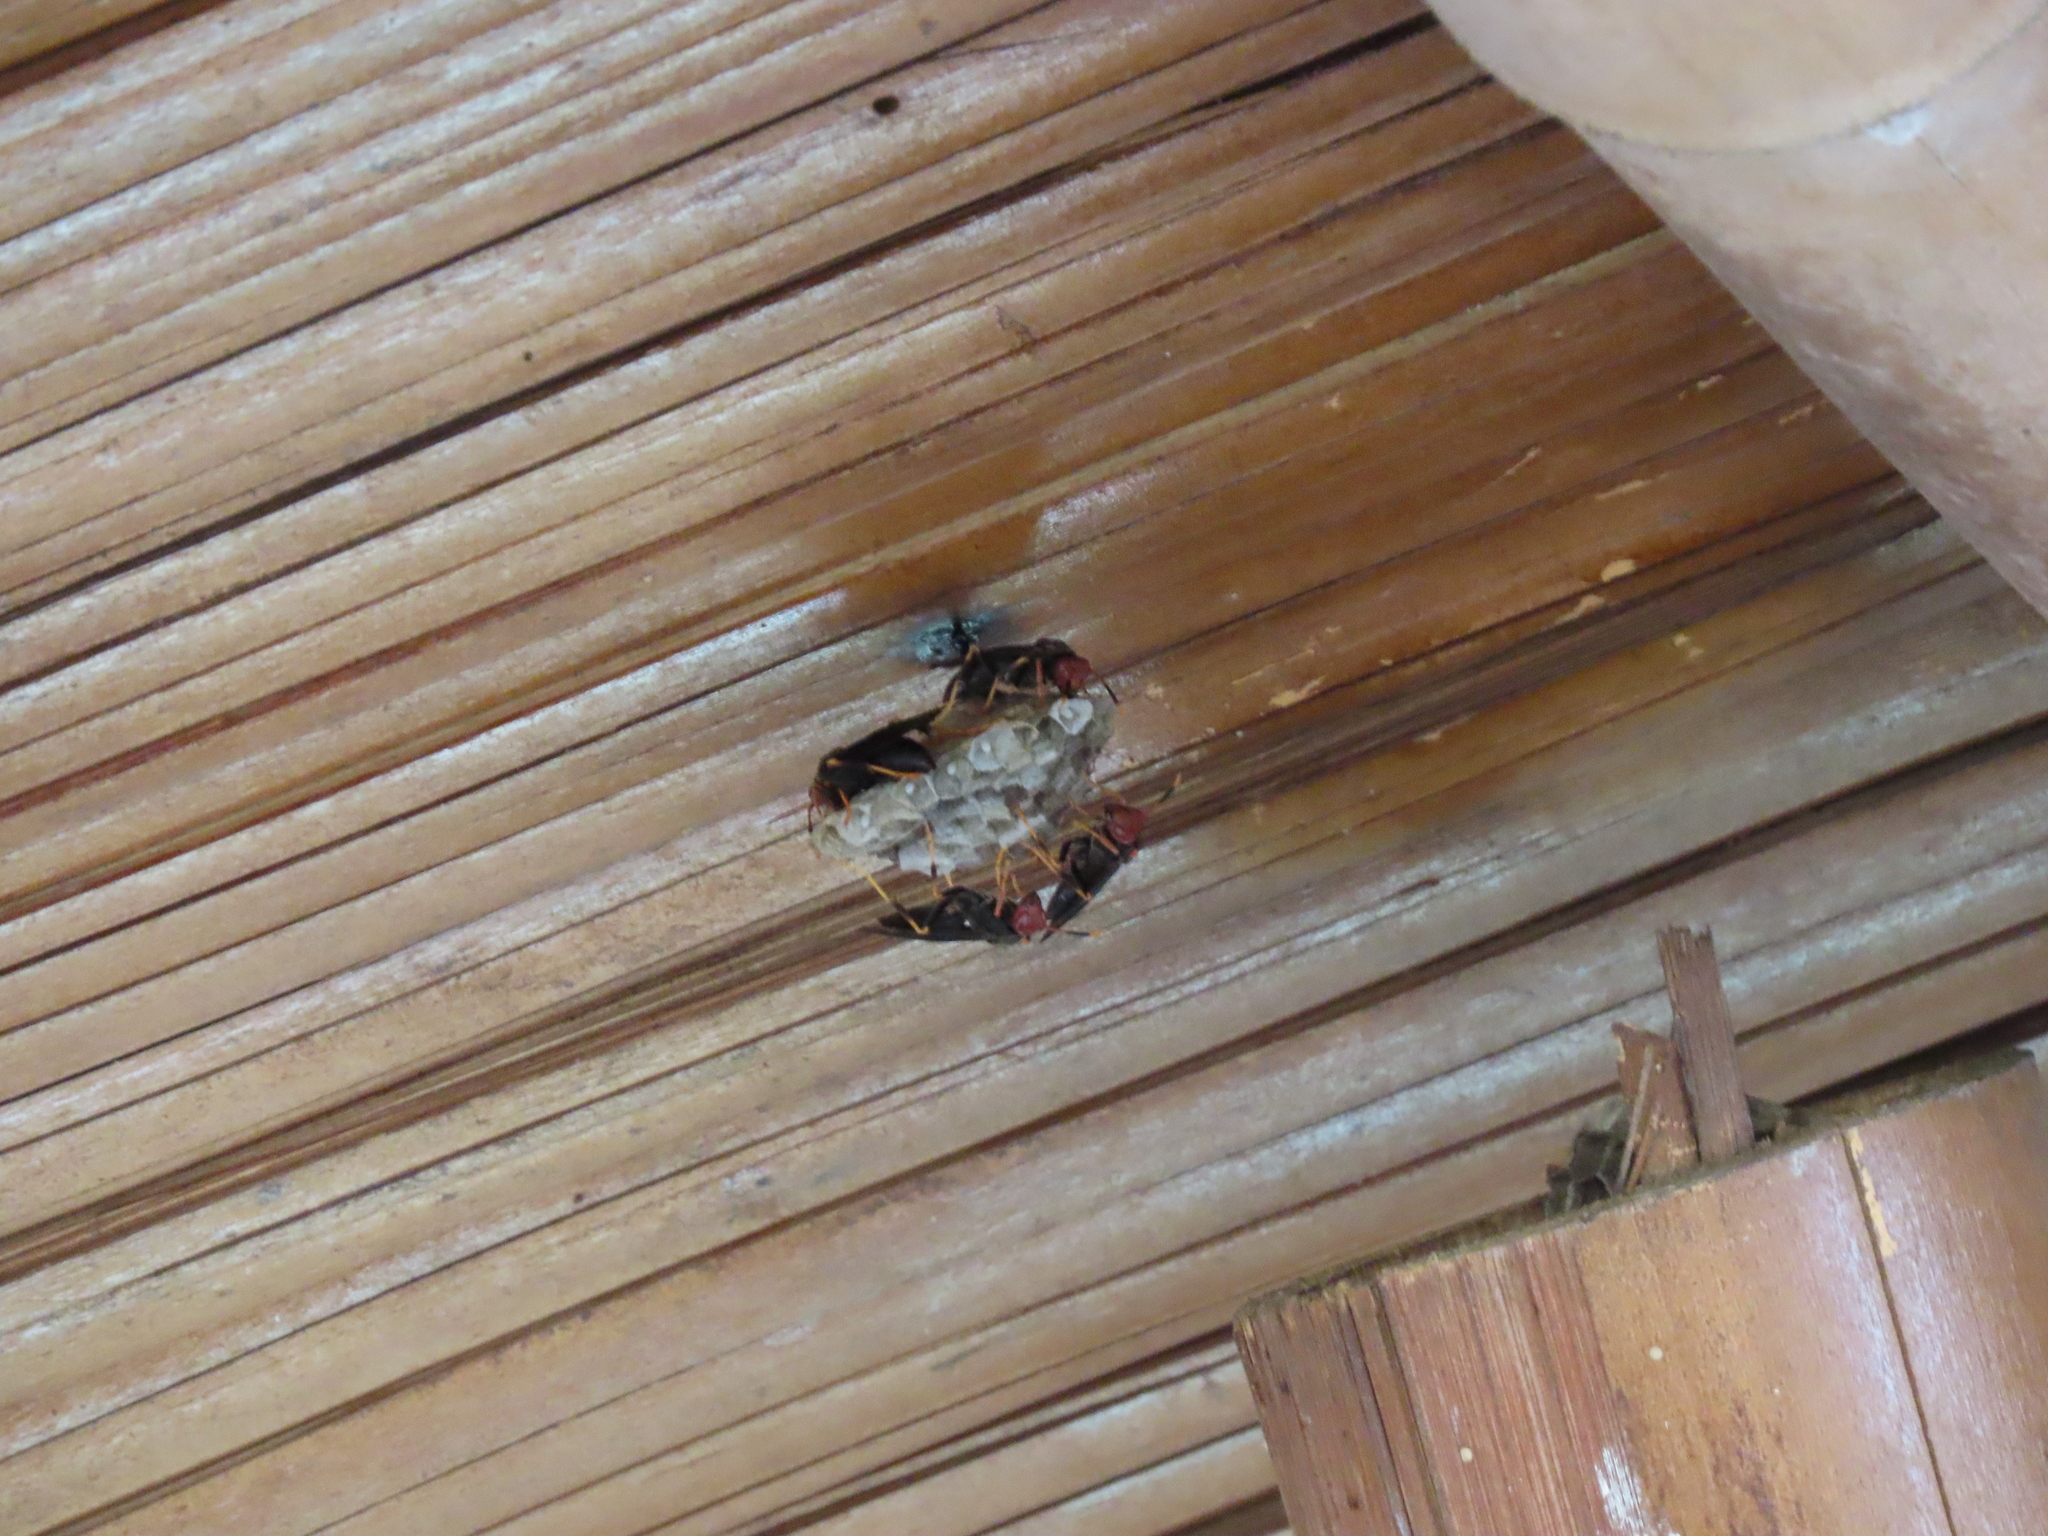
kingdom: Animalia
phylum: Arthropoda
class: Insecta
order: Hymenoptera
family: Eumenidae
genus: Polistes
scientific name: Polistes erythrocephalus
